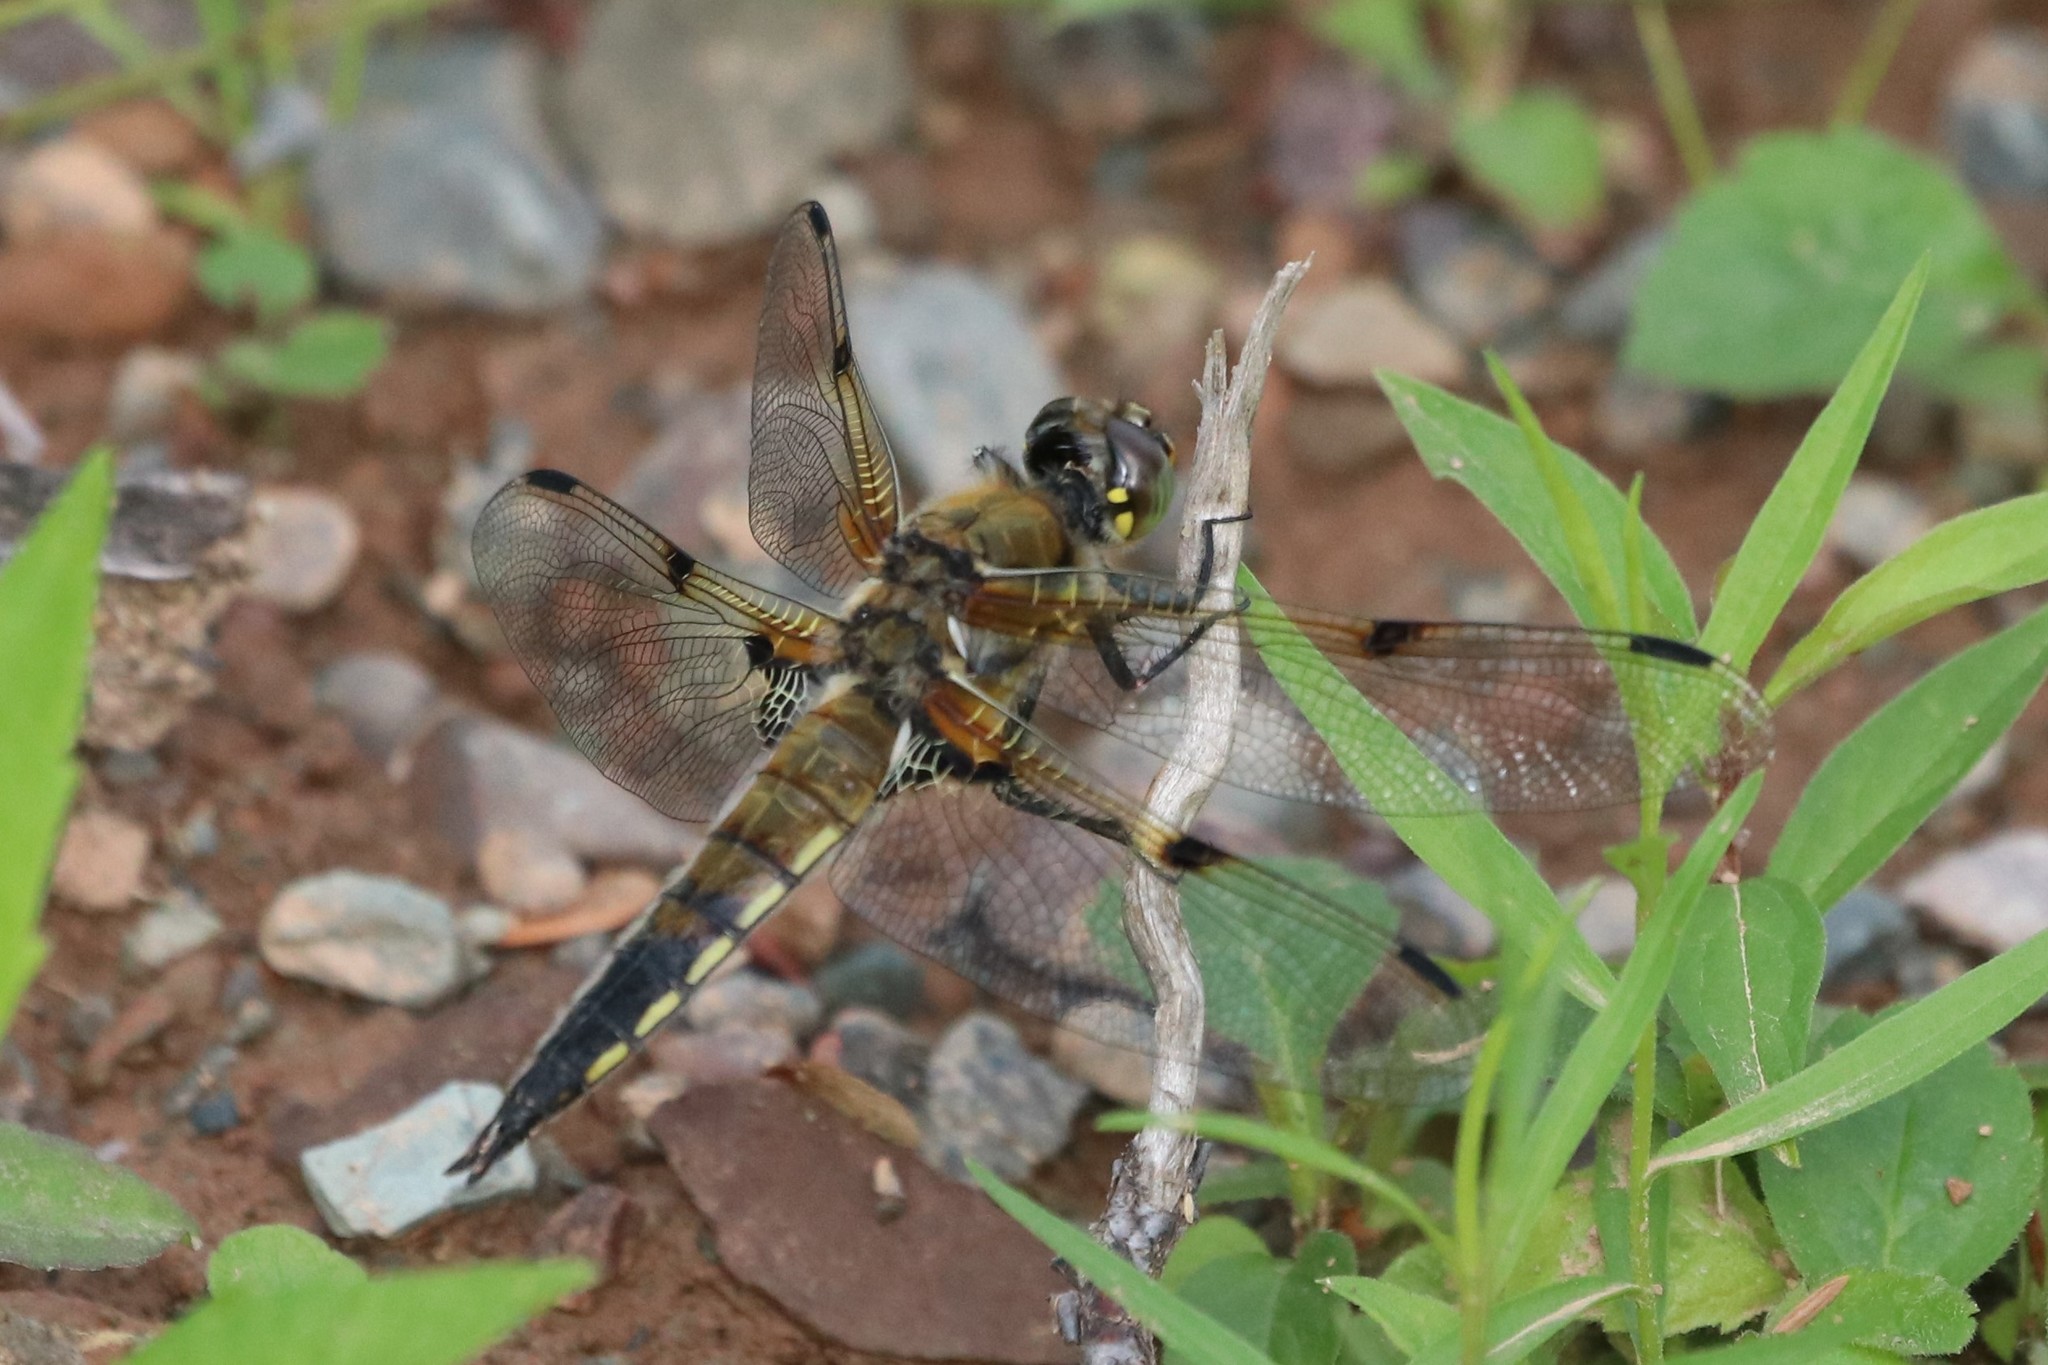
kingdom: Animalia
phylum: Arthropoda
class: Insecta
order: Odonata
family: Libellulidae
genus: Libellula
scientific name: Libellula quadrimaculata
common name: Four-spotted chaser
